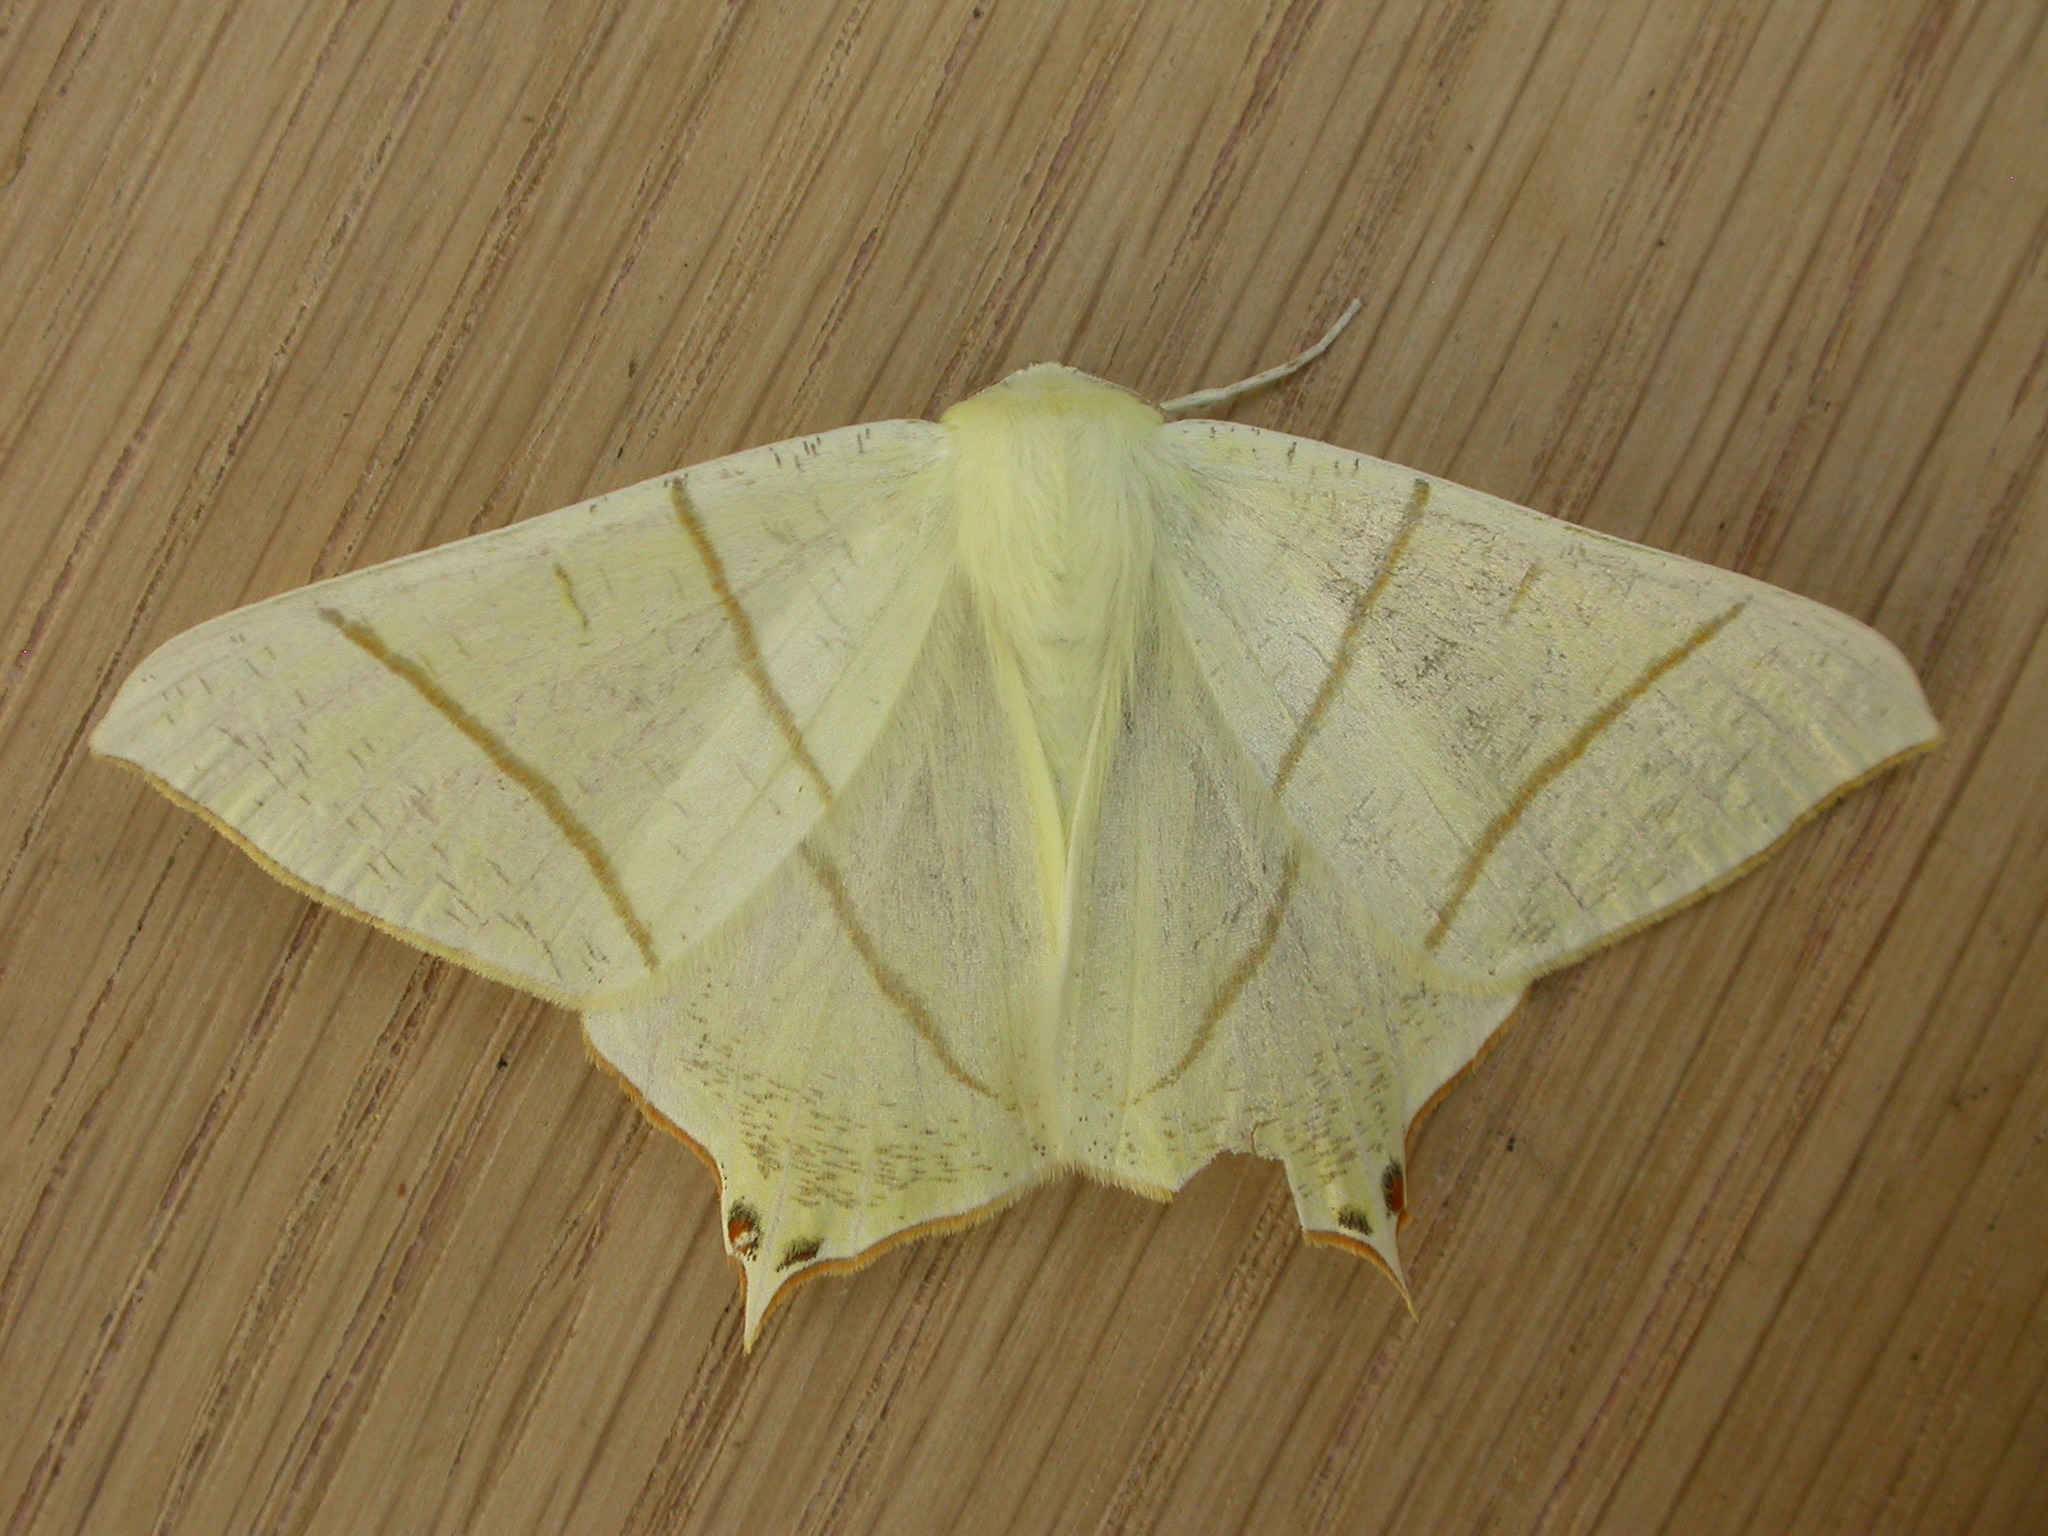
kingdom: Animalia
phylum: Arthropoda
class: Insecta
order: Lepidoptera
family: Geometridae
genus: Ourapteryx
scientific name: Ourapteryx sambucaria
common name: Swallow-tailed moth
